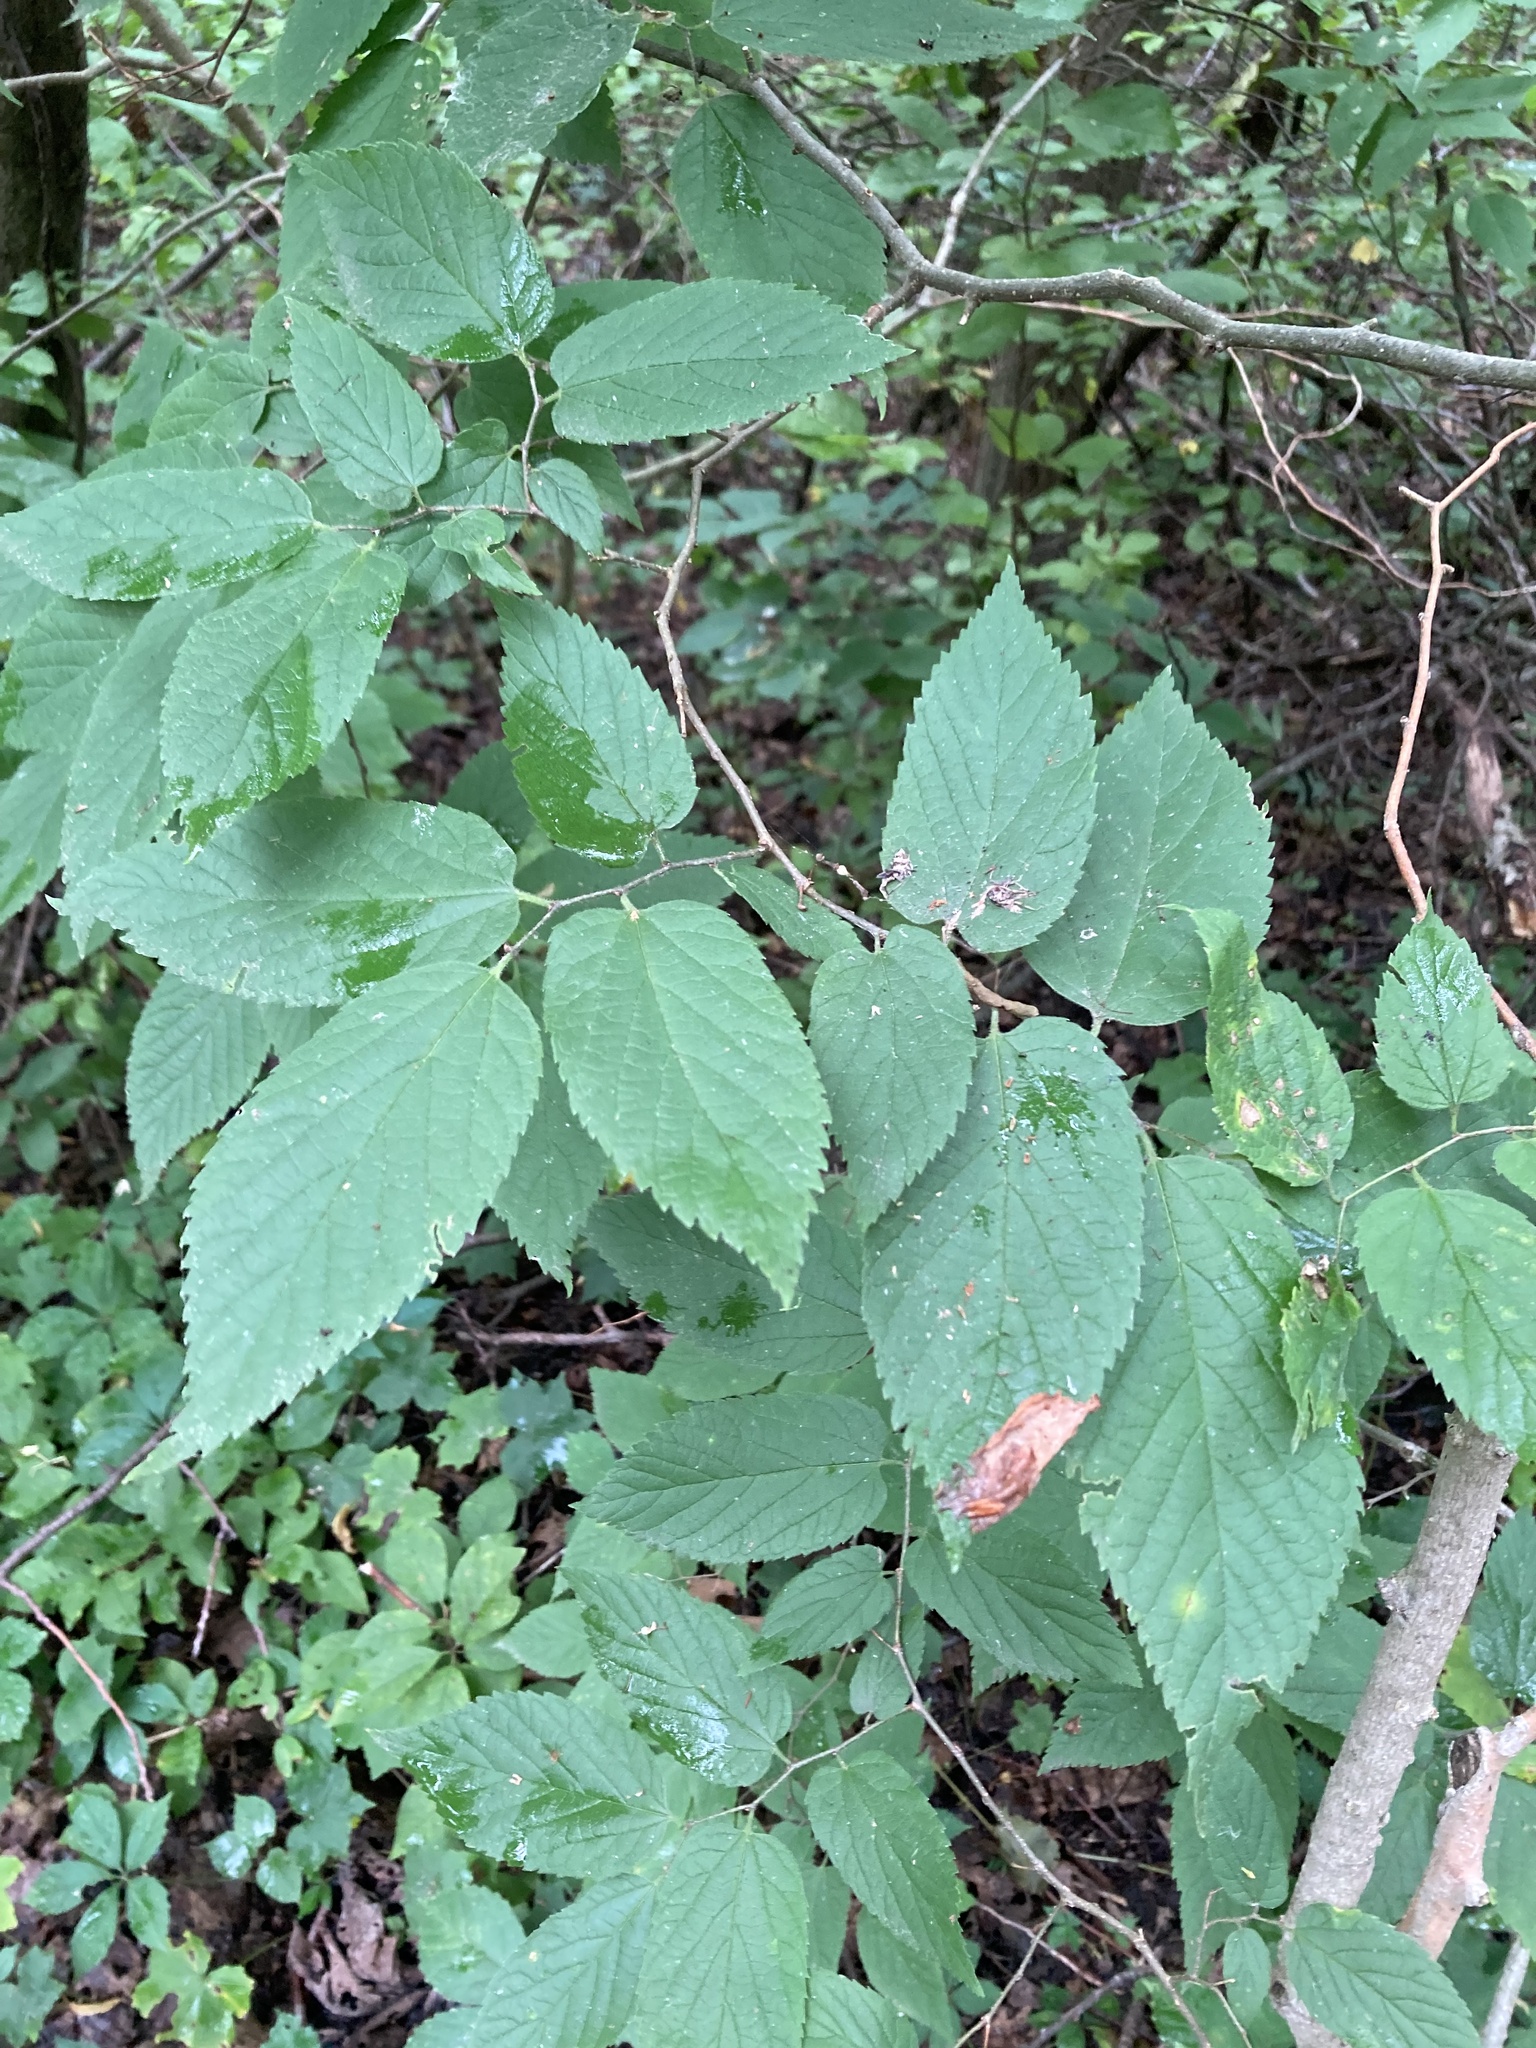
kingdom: Plantae
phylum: Tracheophyta
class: Magnoliopsida
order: Rosales
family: Cannabaceae
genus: Celtis
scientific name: Celtis occidentalis
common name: Common hackberry
